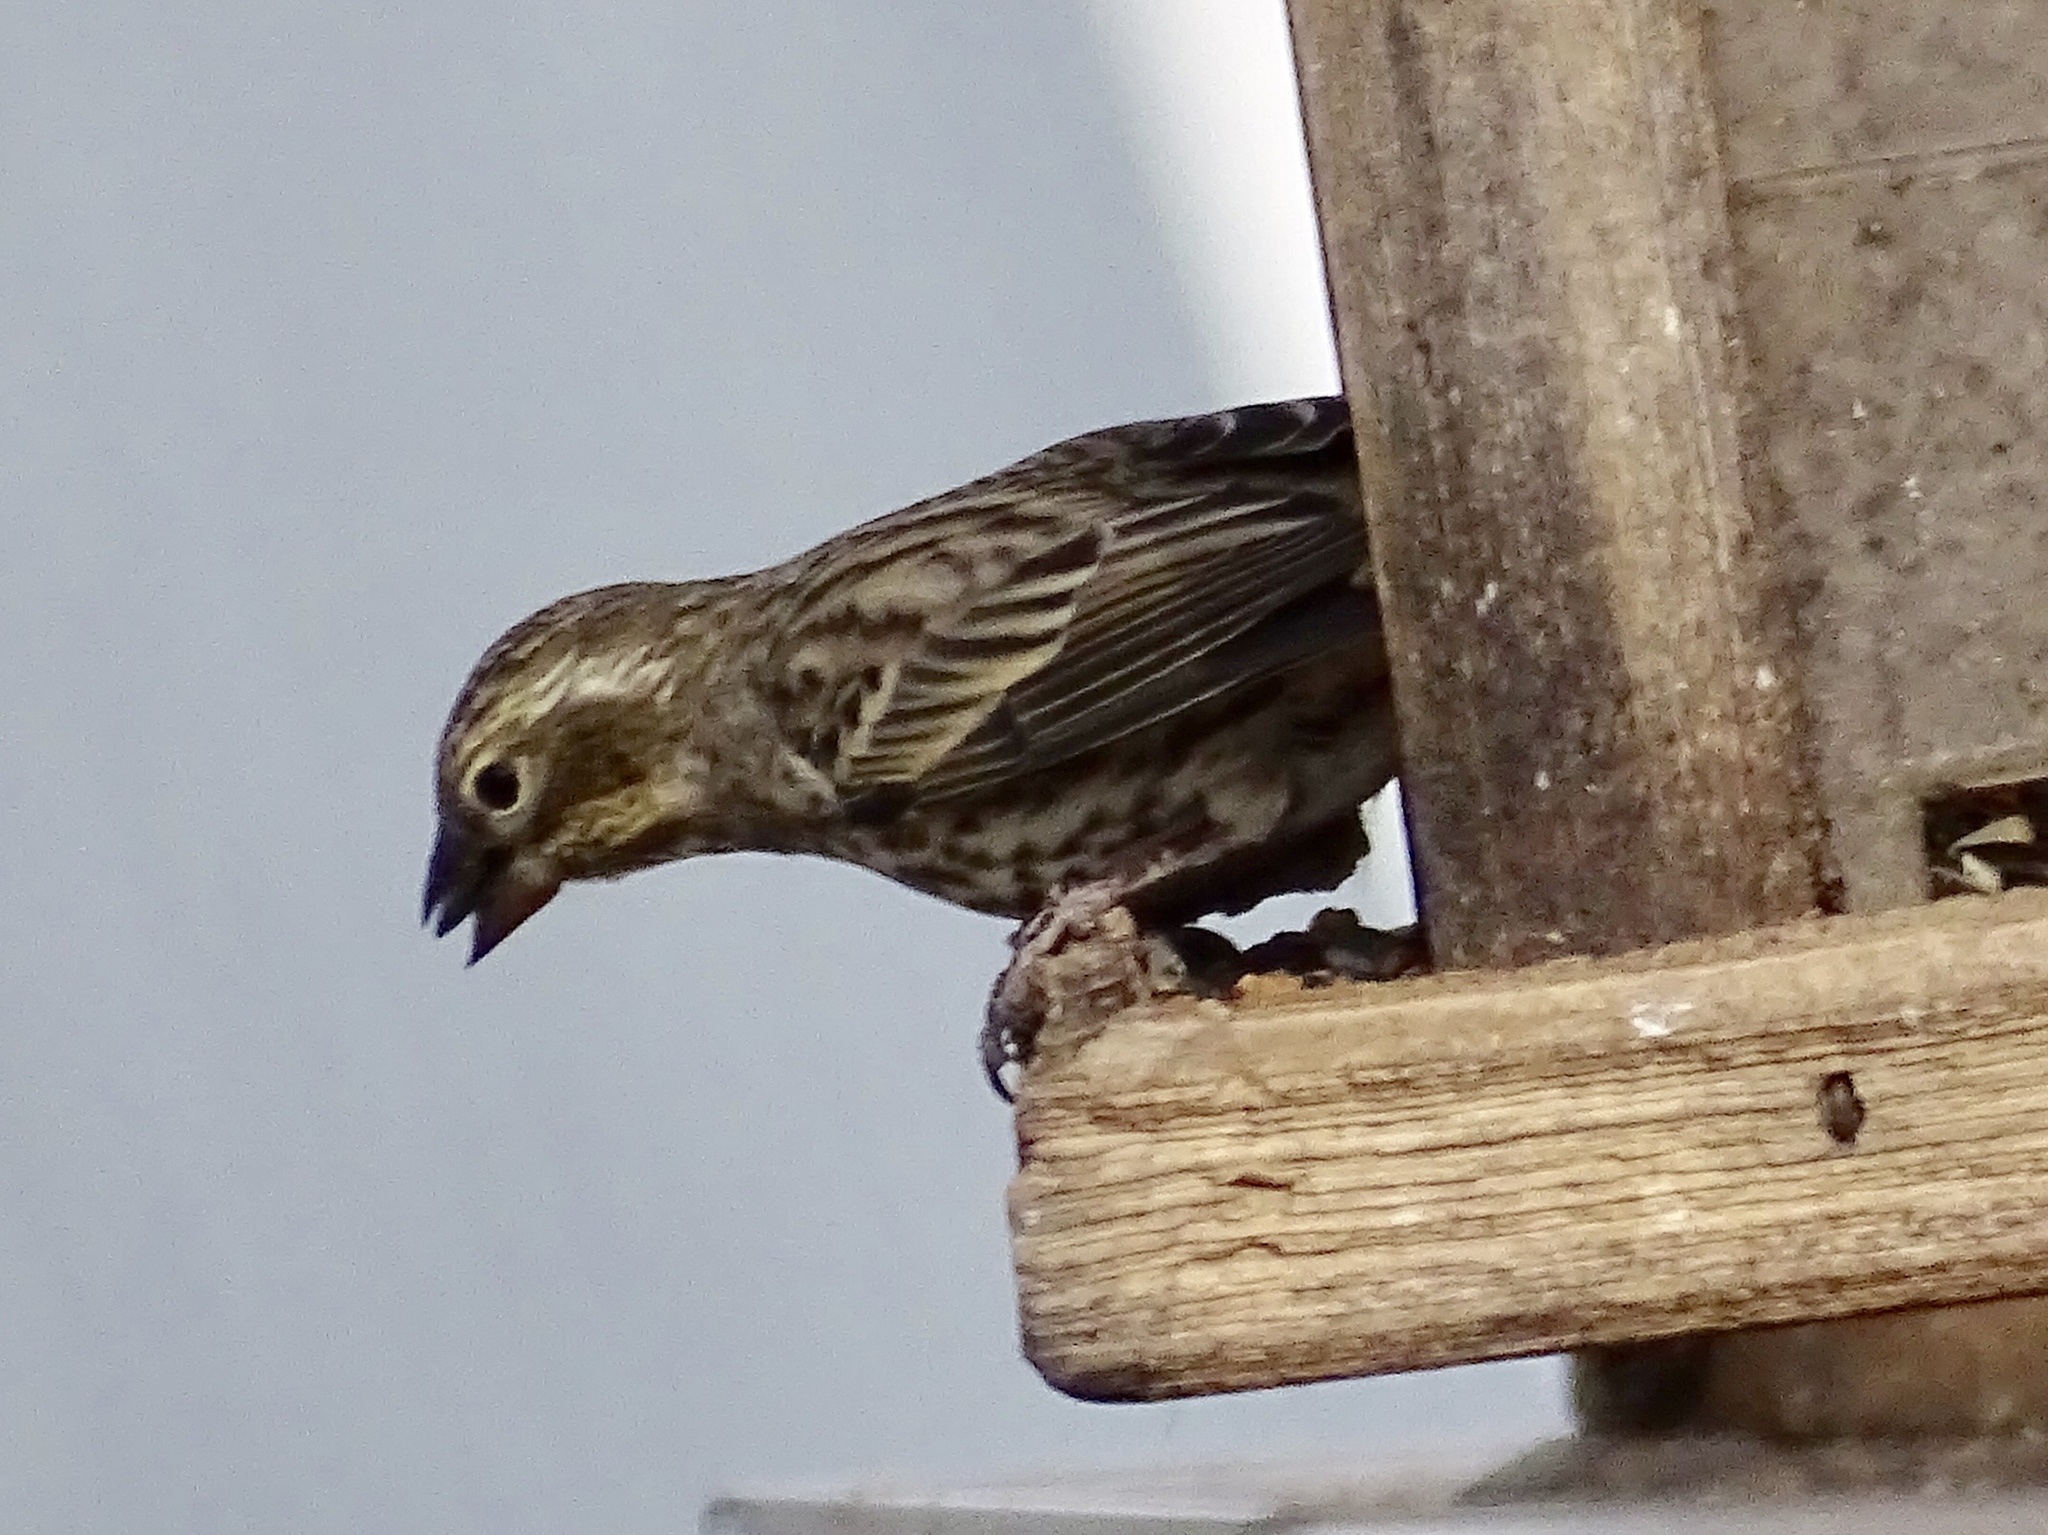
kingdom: Animalia
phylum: Chordata
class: Aves
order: Passeriformes
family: Fringillidae
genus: Haemorhous
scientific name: Haemorhous cassinii
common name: Cassin's finch
